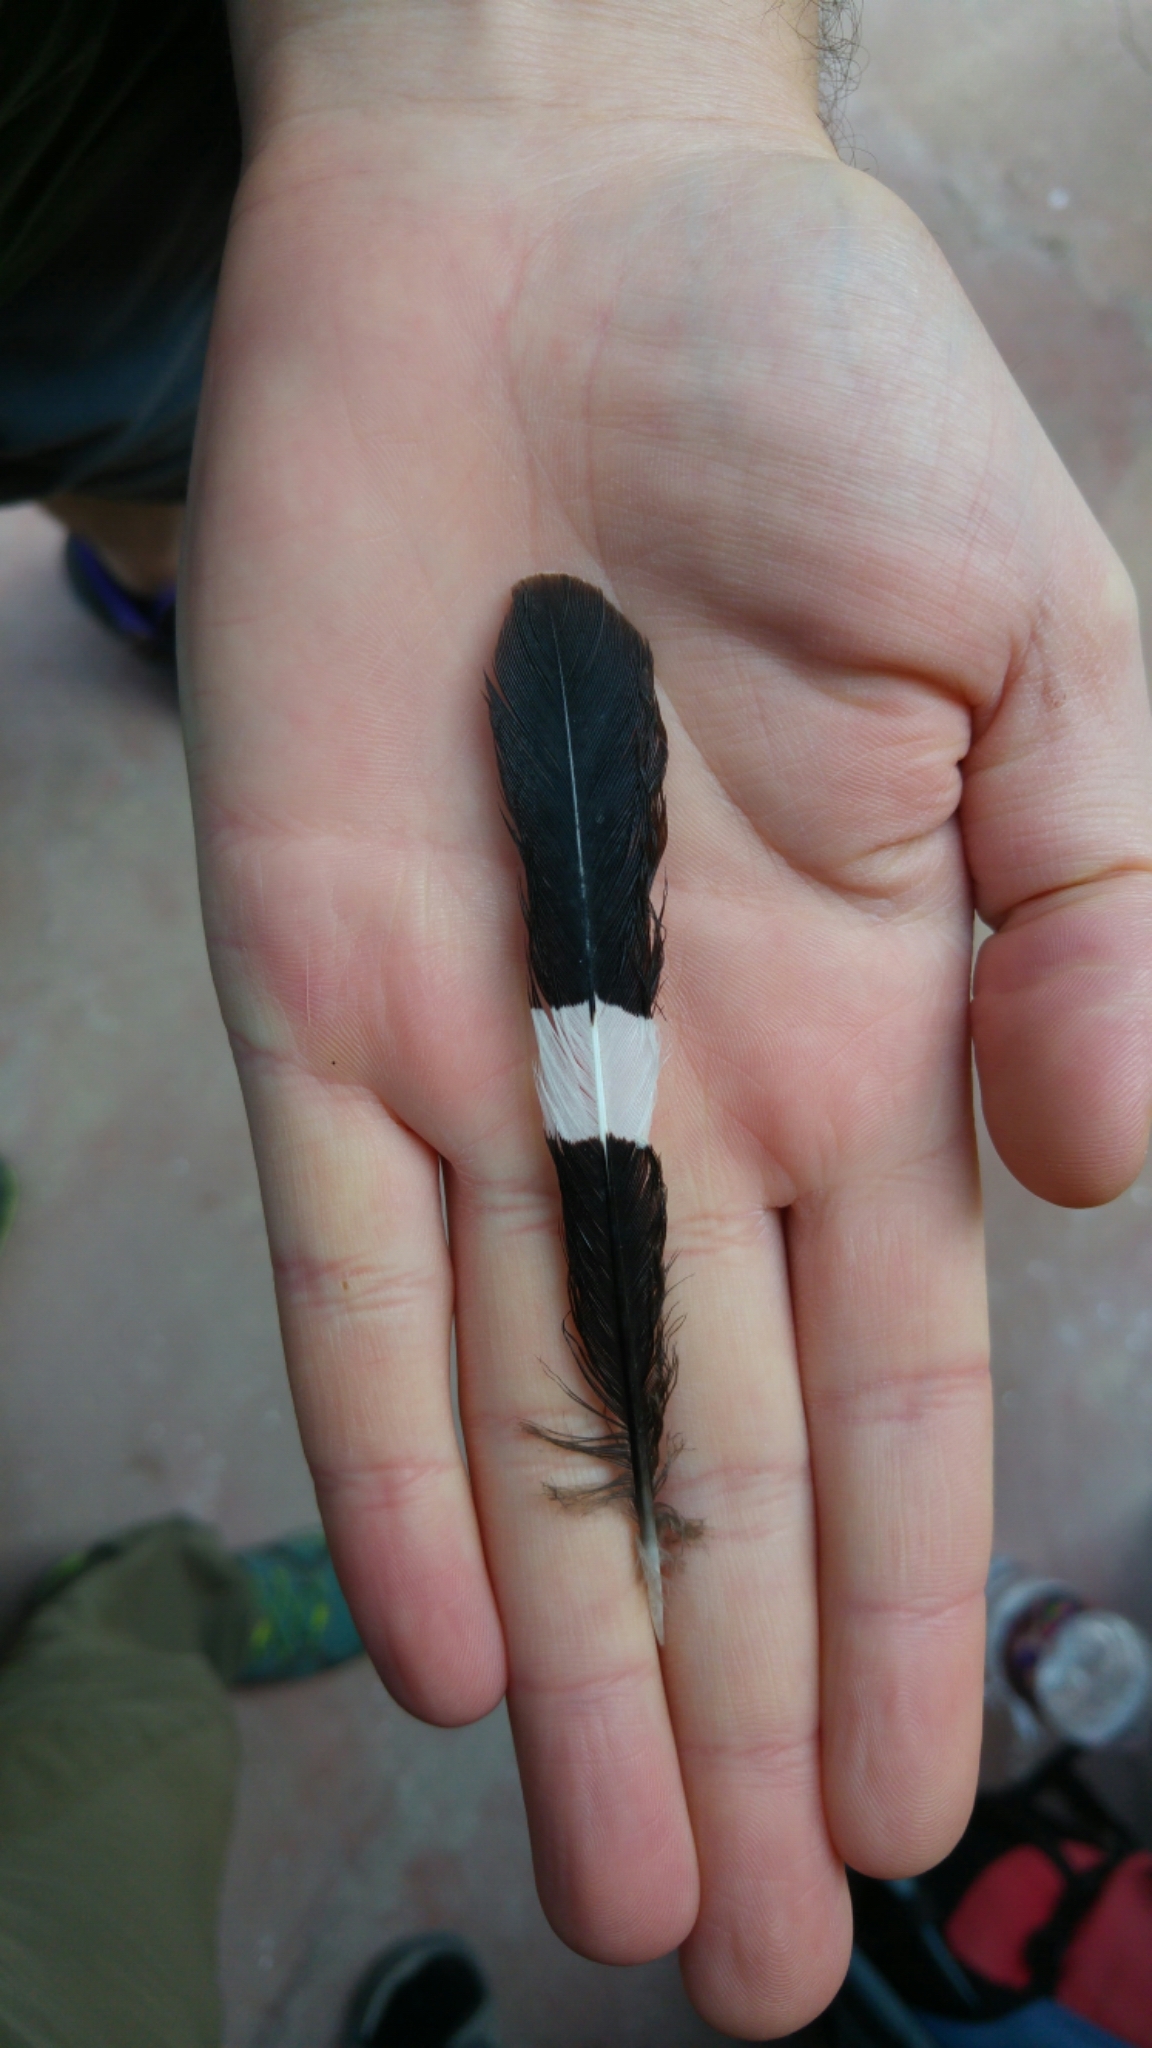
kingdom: Animalia
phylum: Chordata
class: Aves
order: Bucerotiformes
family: Upupidae
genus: Upupa
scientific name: Upupa epops
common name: Eurasian hoopoe
